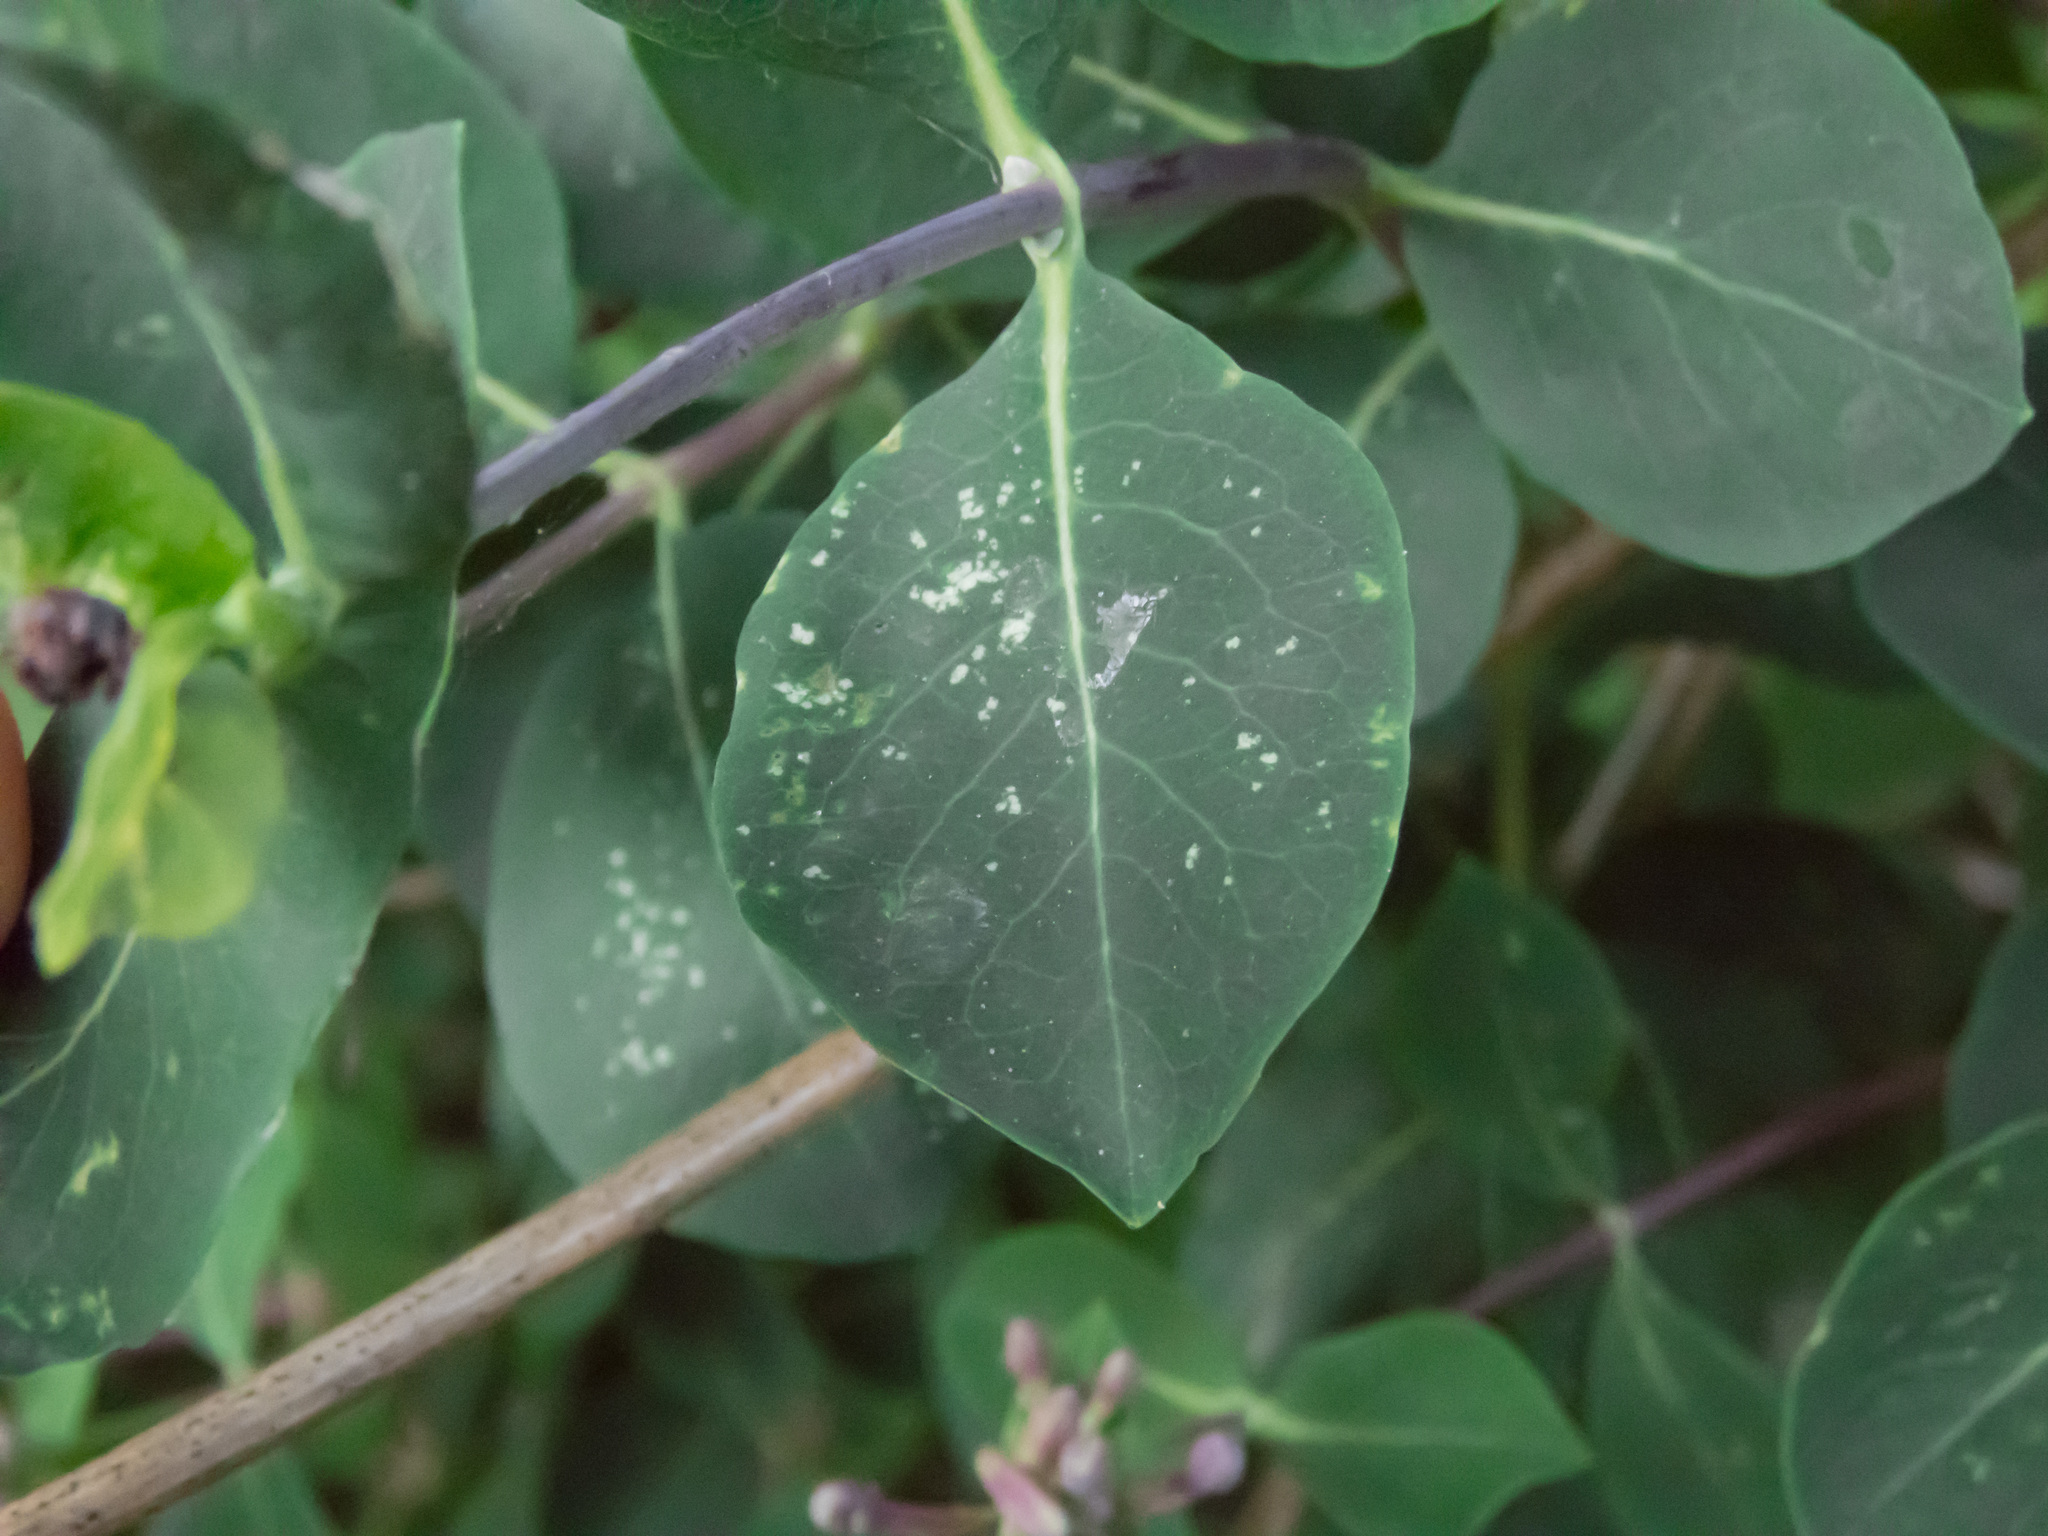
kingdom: Plantae
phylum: Tracheophyta
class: Magnoliopsida
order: Dipsacales
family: Caprifoliaceae
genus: Lonicera
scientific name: Lonicera etrusca
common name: Etruscan honeysuckle
